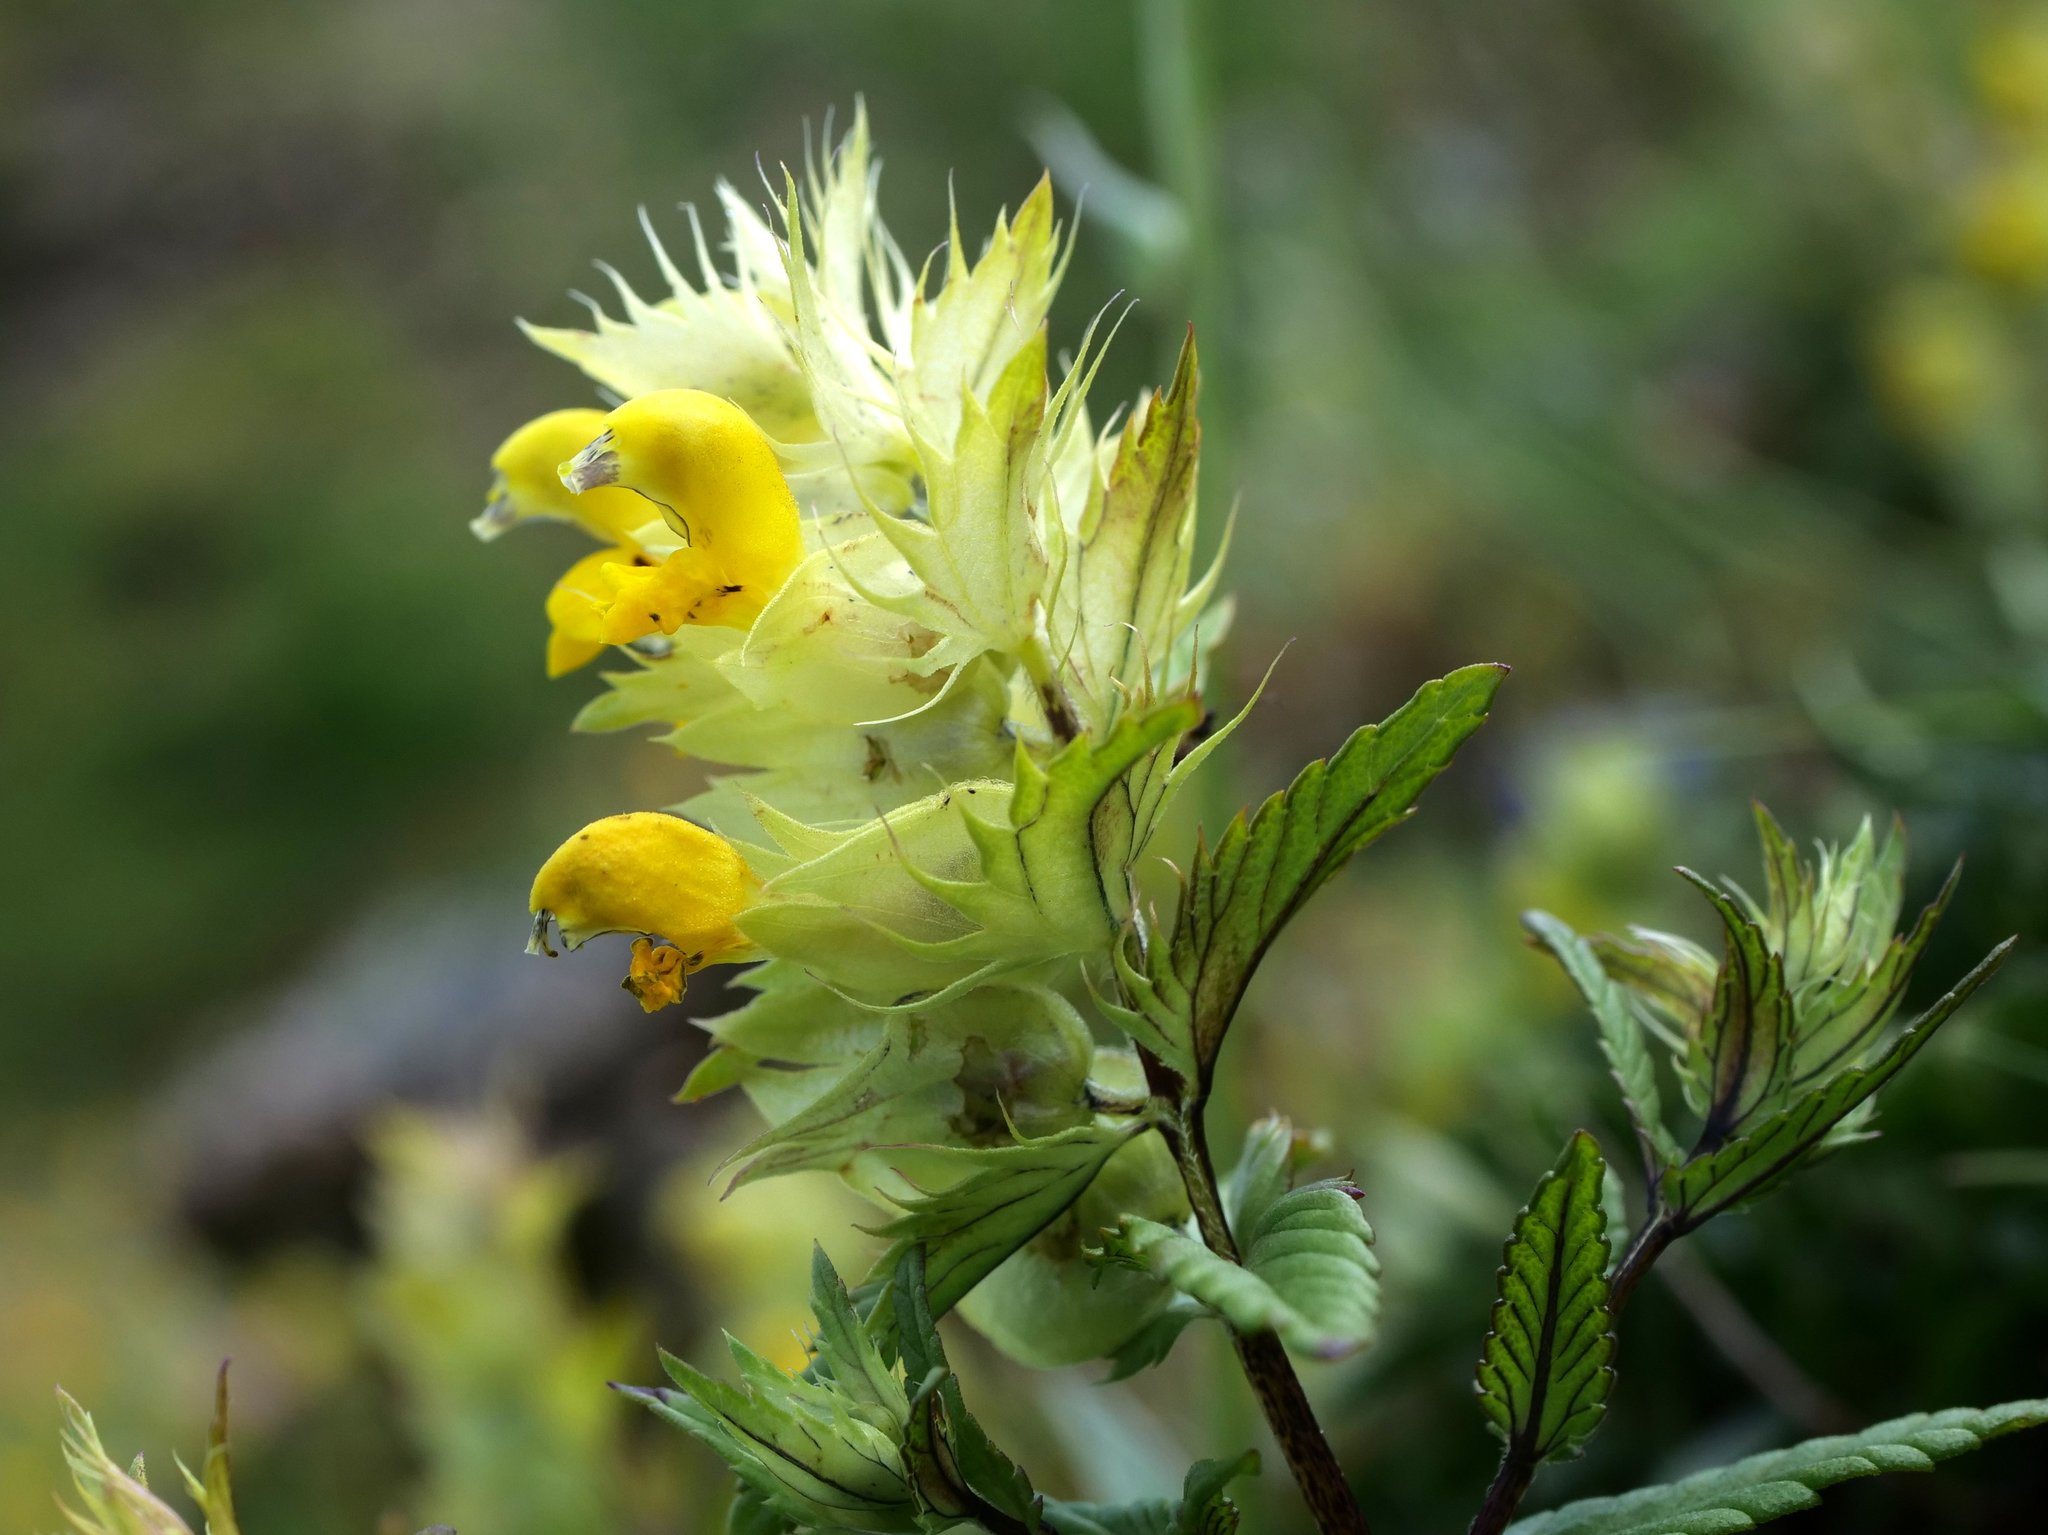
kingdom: Plantae
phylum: Tracheophyta
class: Magnoliopsida
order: Lamiales
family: Orobanchaceae
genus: Rhinanthus
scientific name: Rhinanthus glacialis
